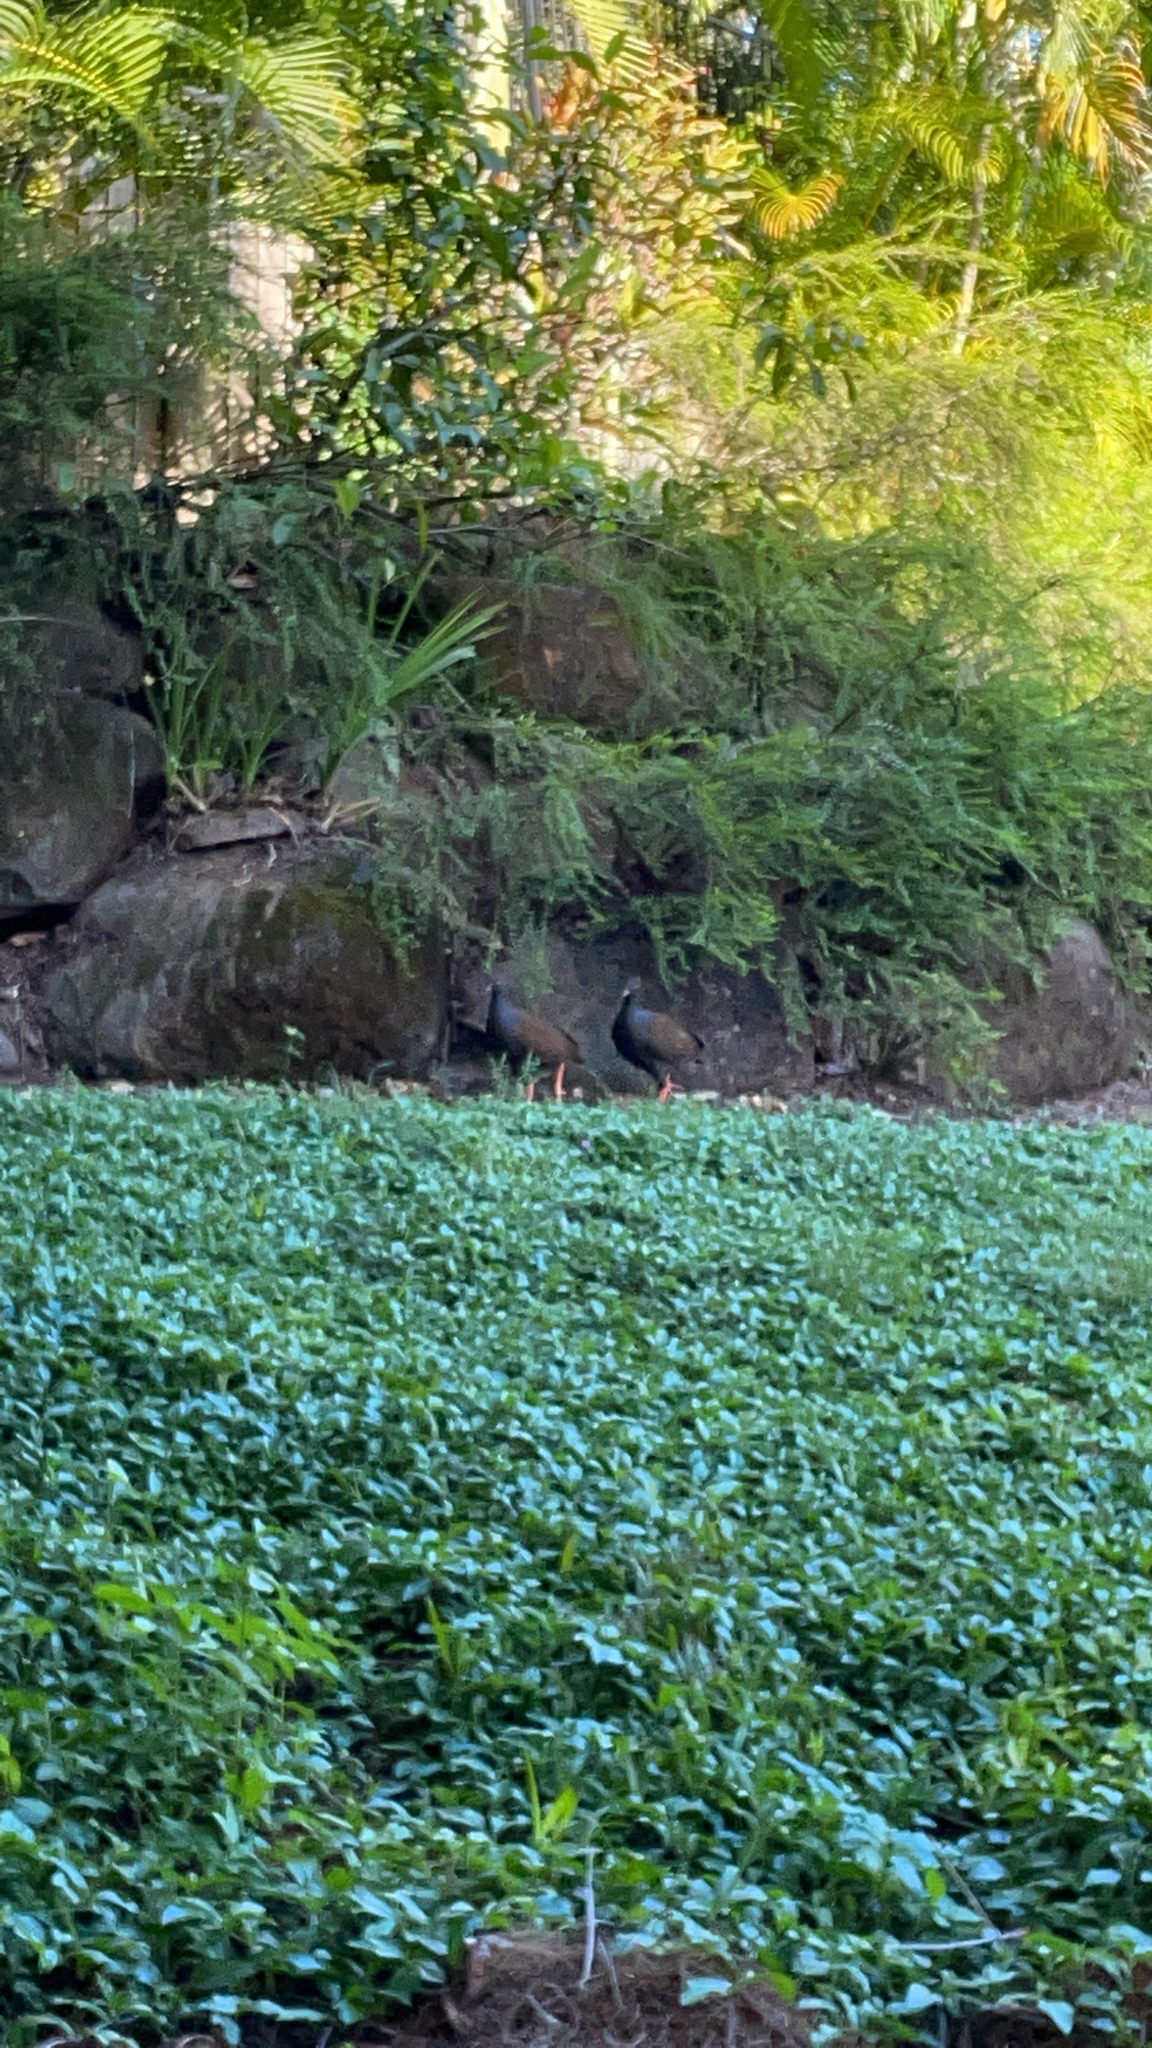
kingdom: Animalia
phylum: Chordata
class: Aves
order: Galliformes
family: Megapodiidae
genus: Megapodius
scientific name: Megapodius reinwardt
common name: Orange-footed scrubfowl
